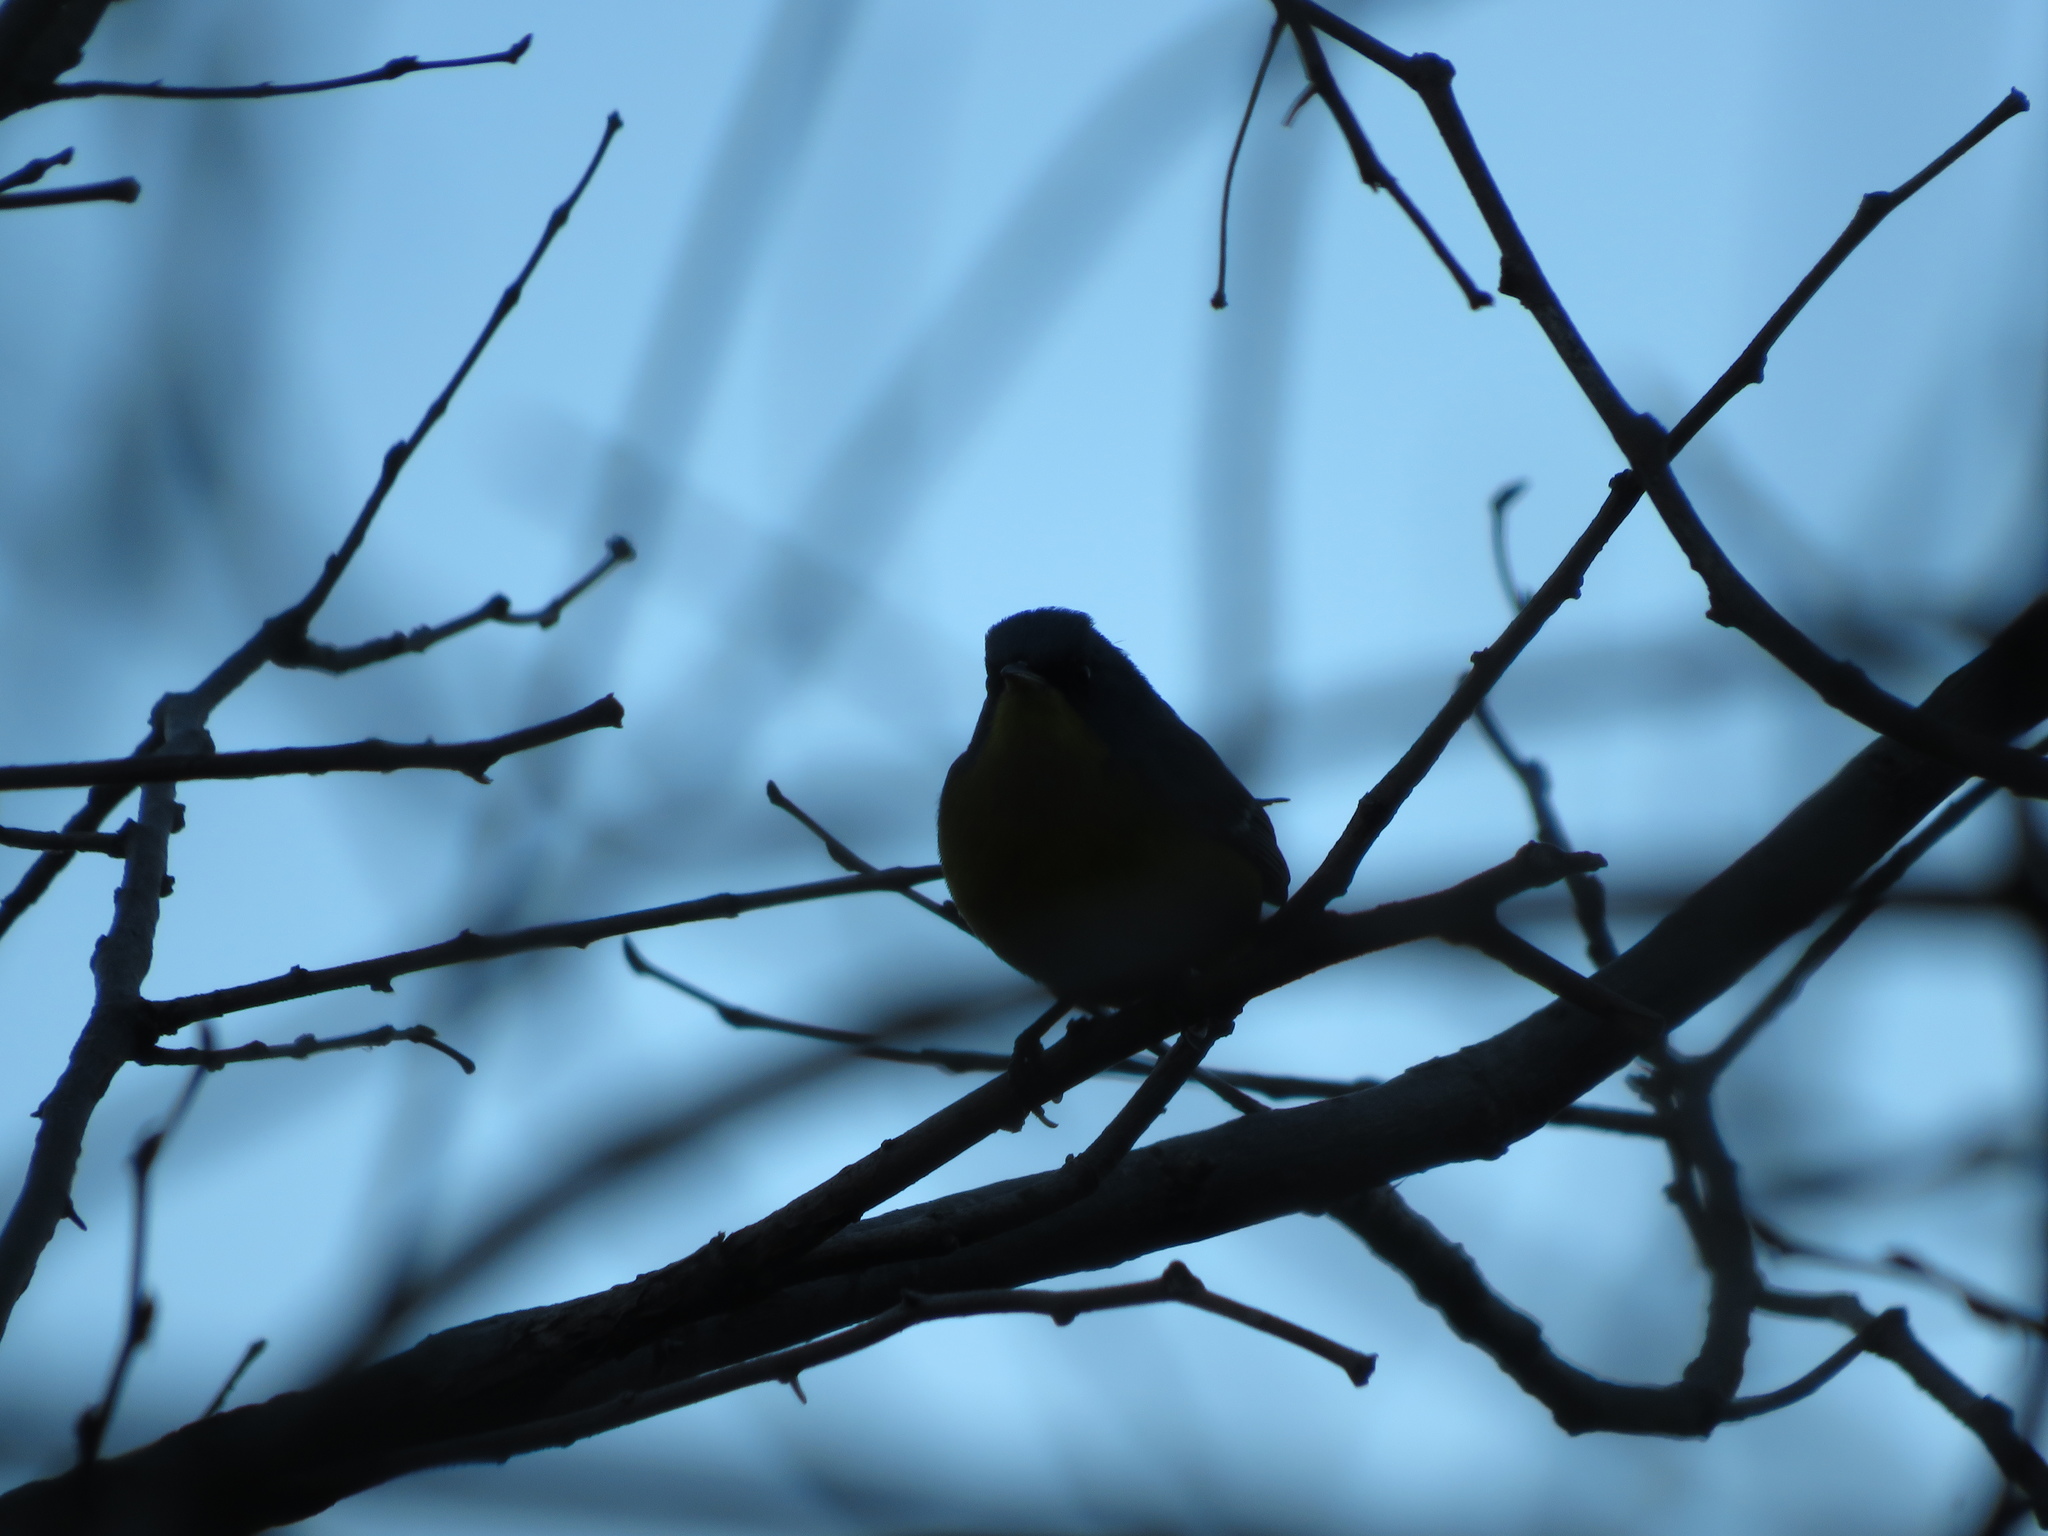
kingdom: Animalia
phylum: Chordata
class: Aves
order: Passeriformes
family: Parulidae
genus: Setophaga
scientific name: Setophaga pitiayumi
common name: Tropical parula
